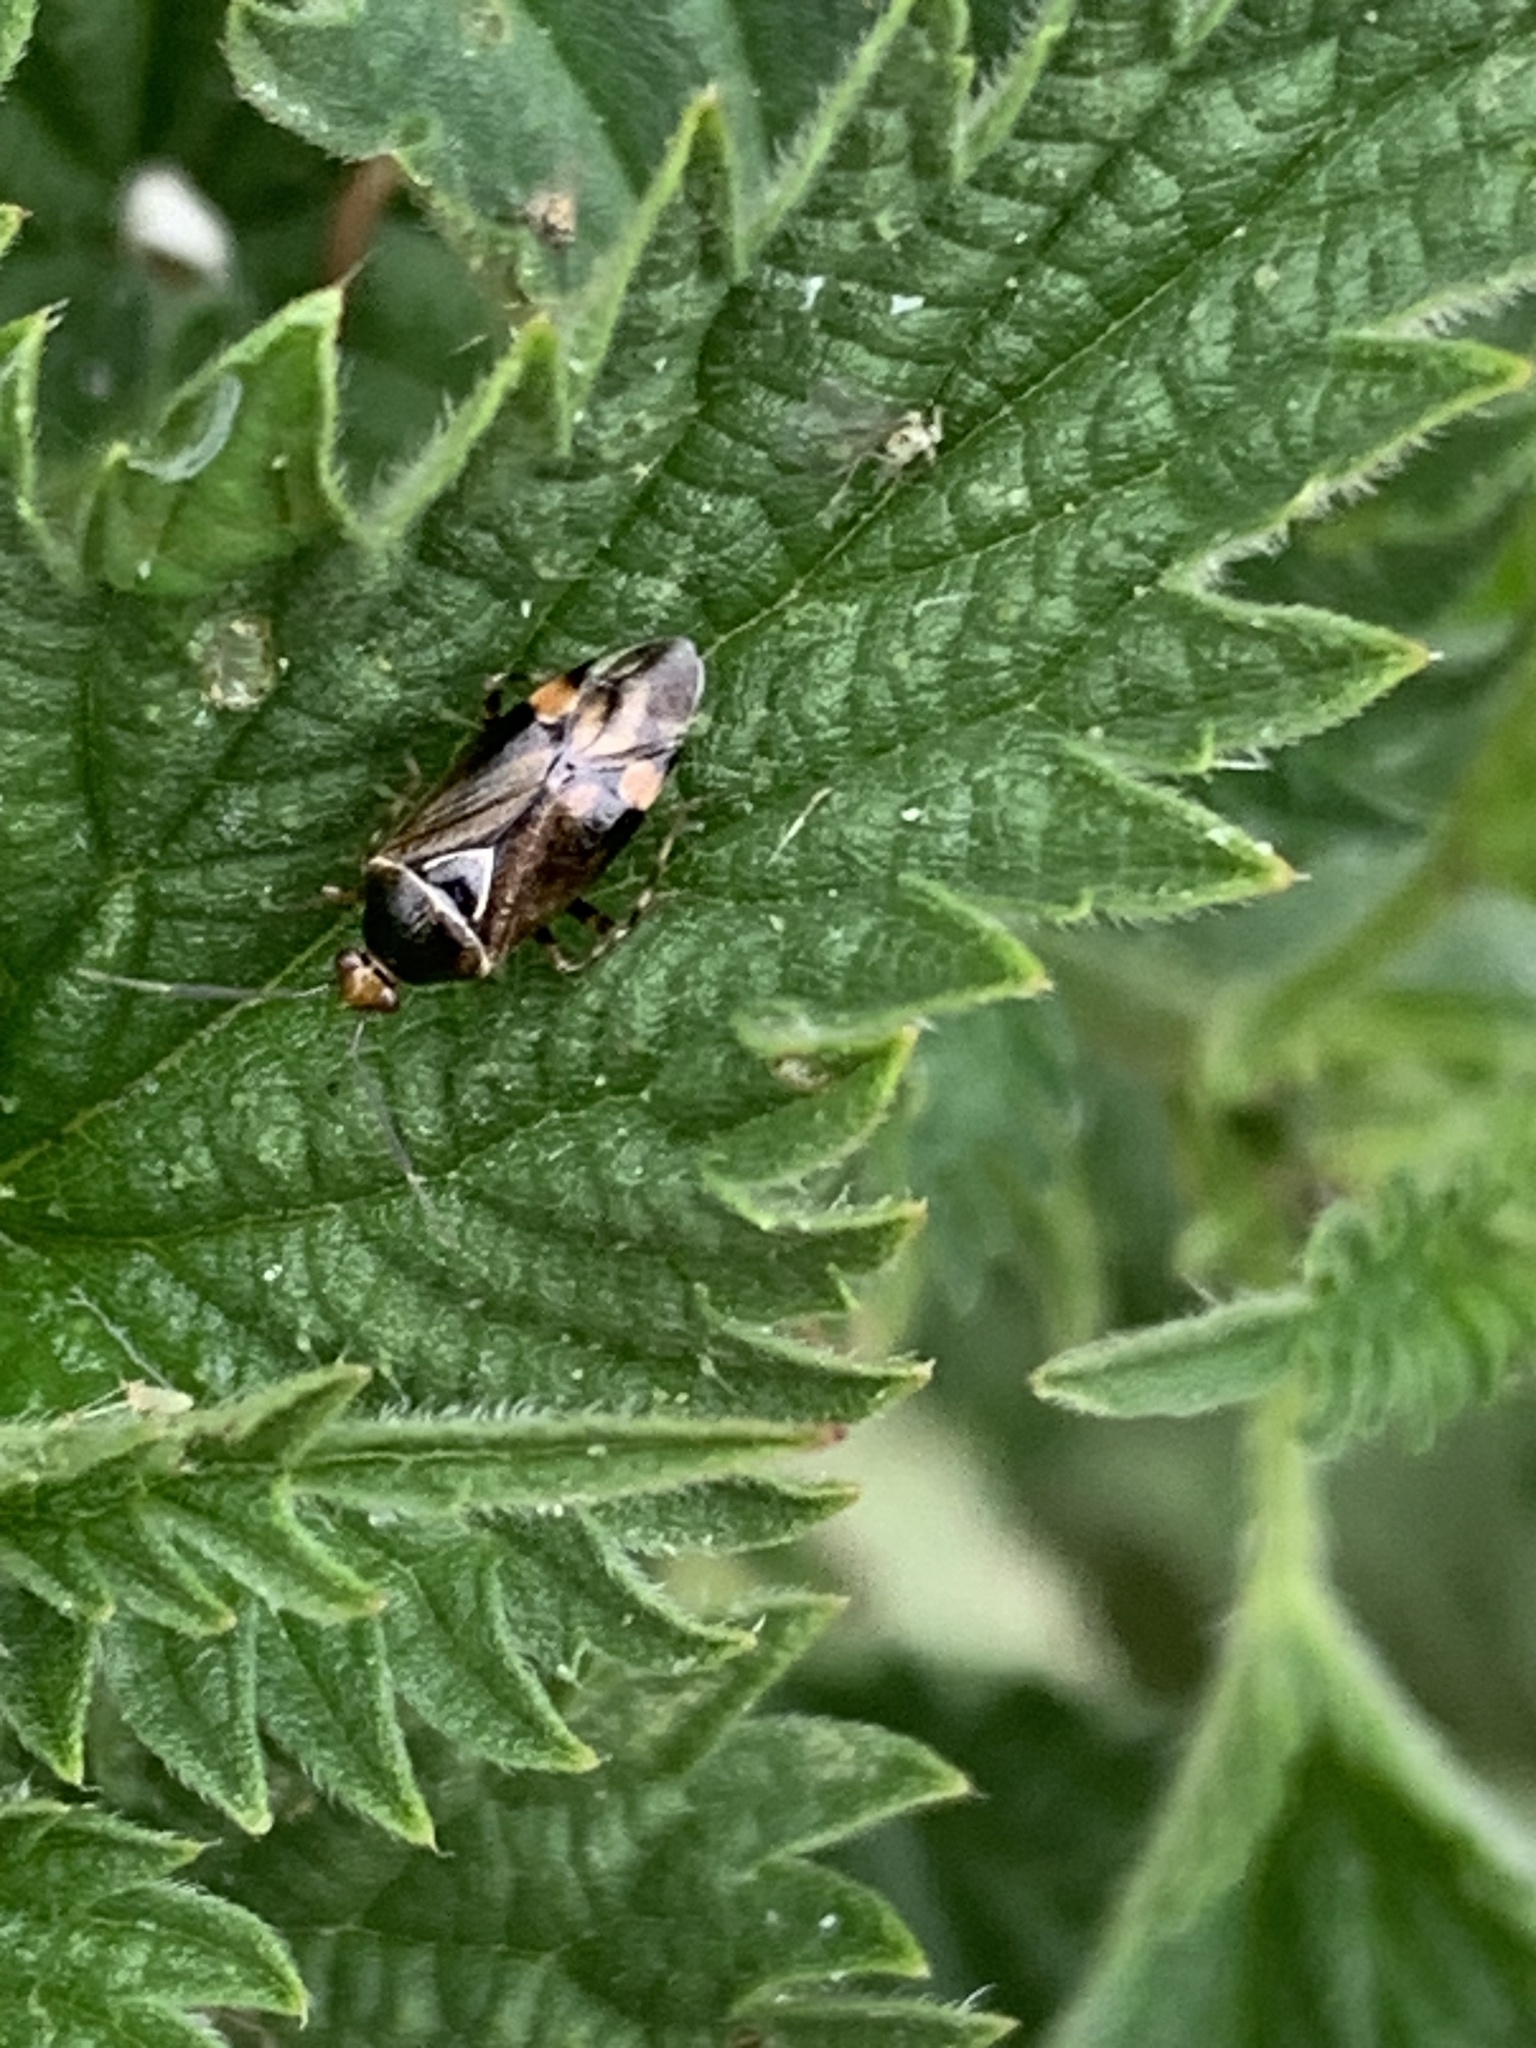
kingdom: Animalia
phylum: Arthropoda
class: Insecta
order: Hemiptera
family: Miridae
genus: Deraeocoris
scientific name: Deraeocoris flavilinea
